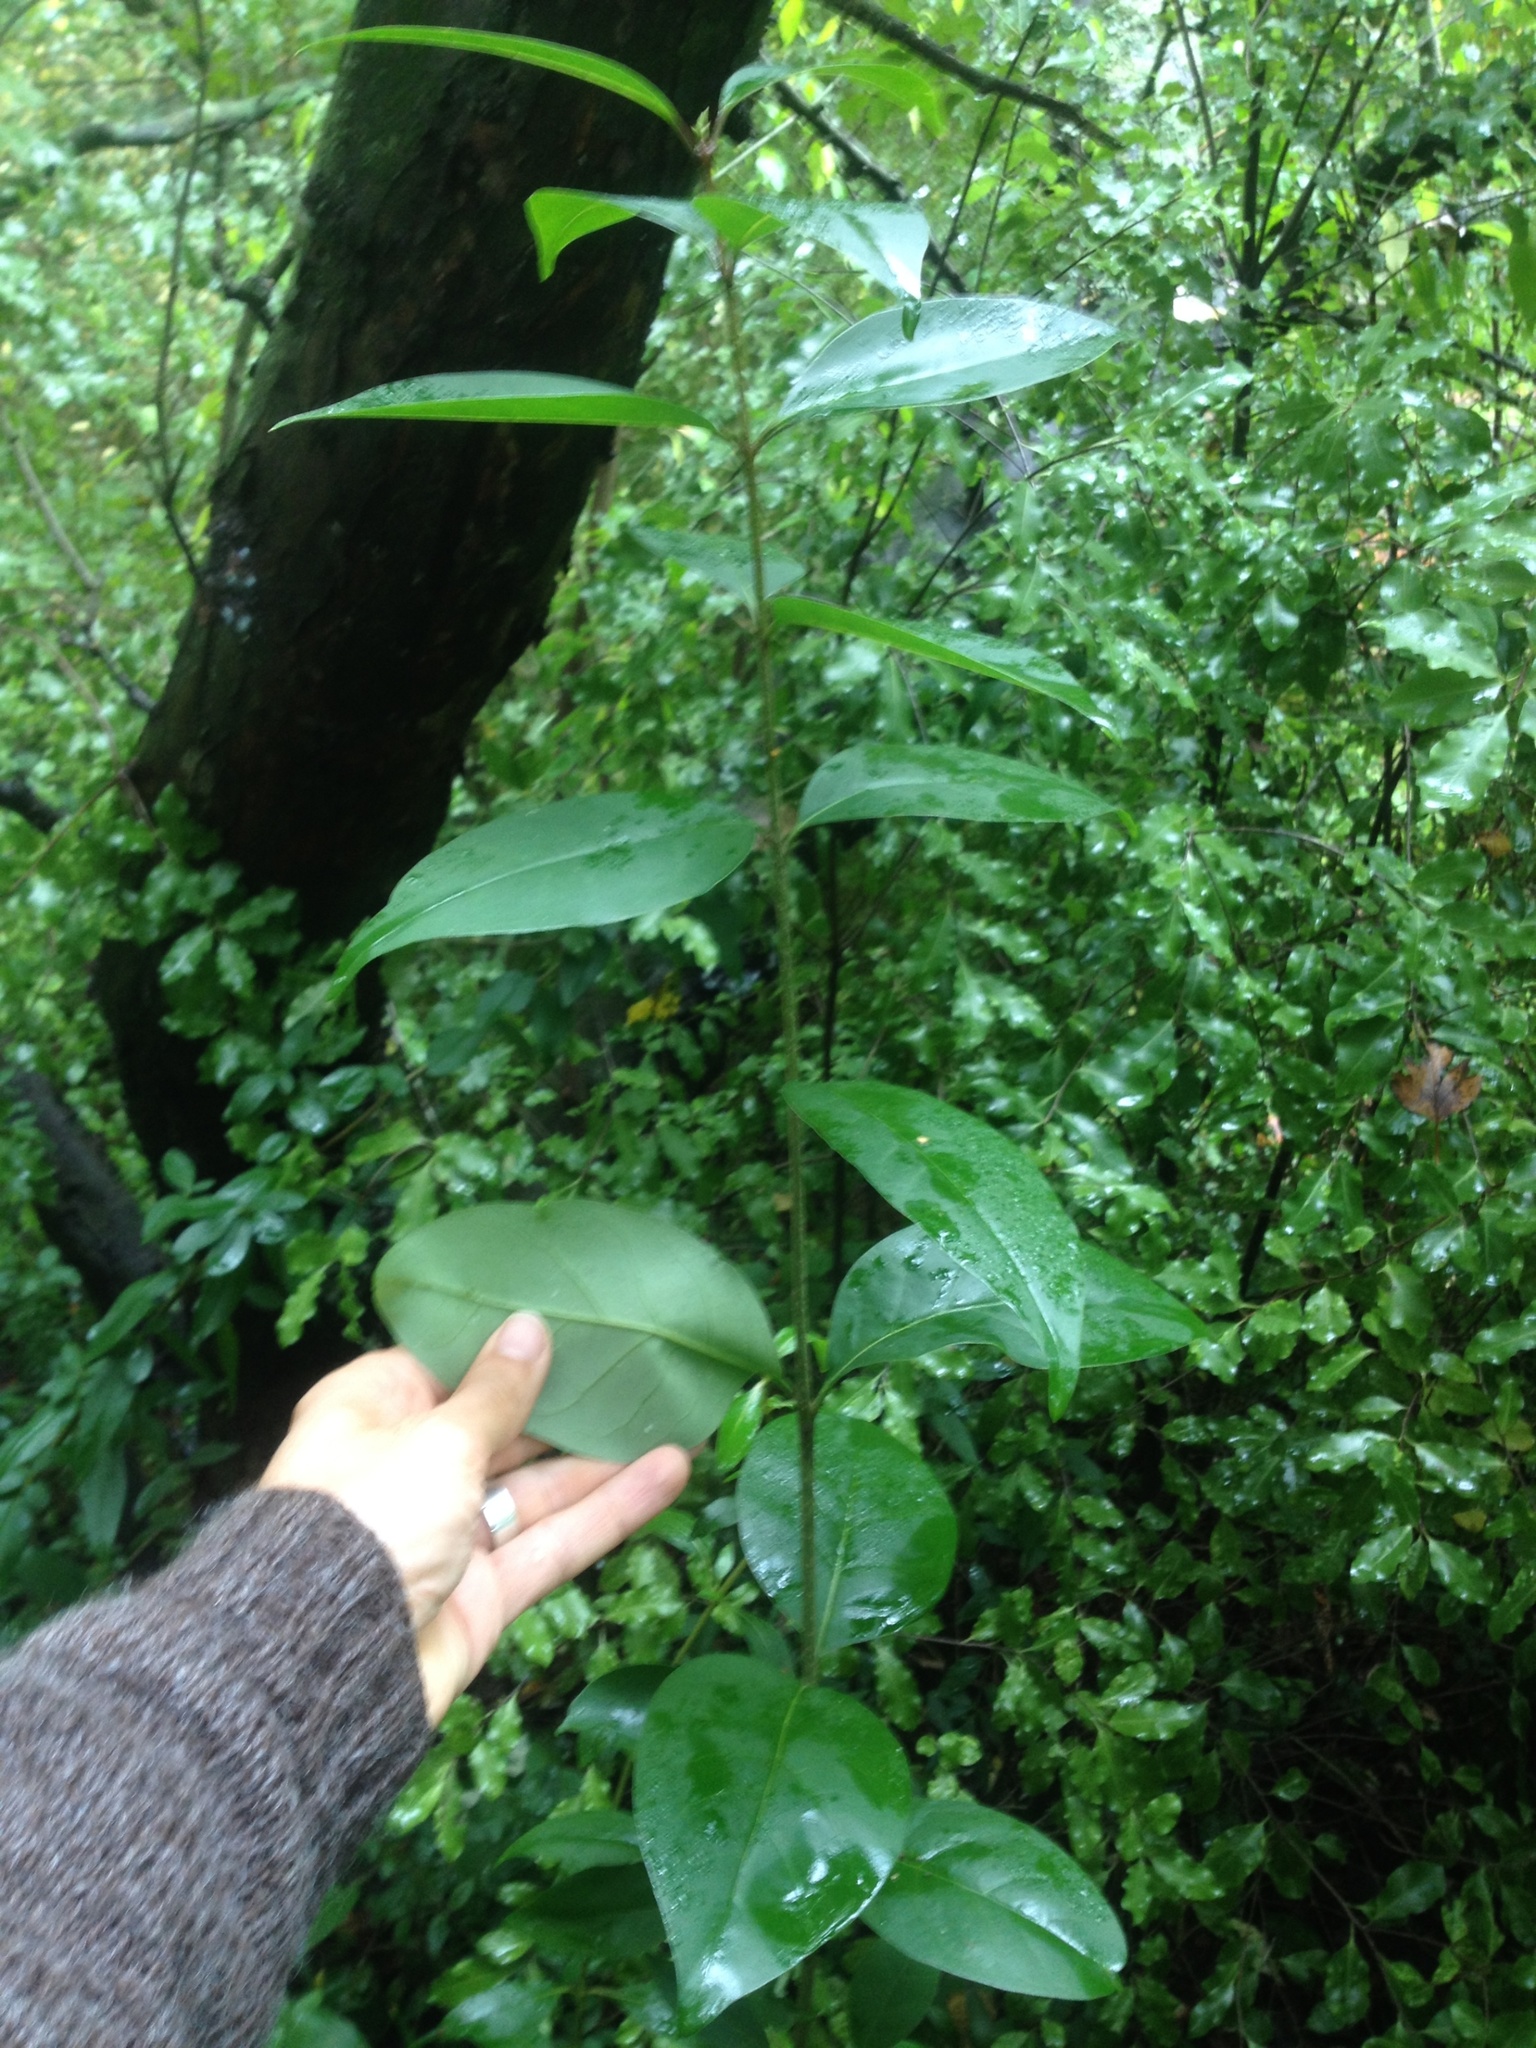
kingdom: Plantae
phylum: Tracheophyta
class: Magnoliopsida
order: Lamiales
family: Oleaceae
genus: Ligustrum
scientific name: Ligustrum lucidum
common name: Glossy privet
